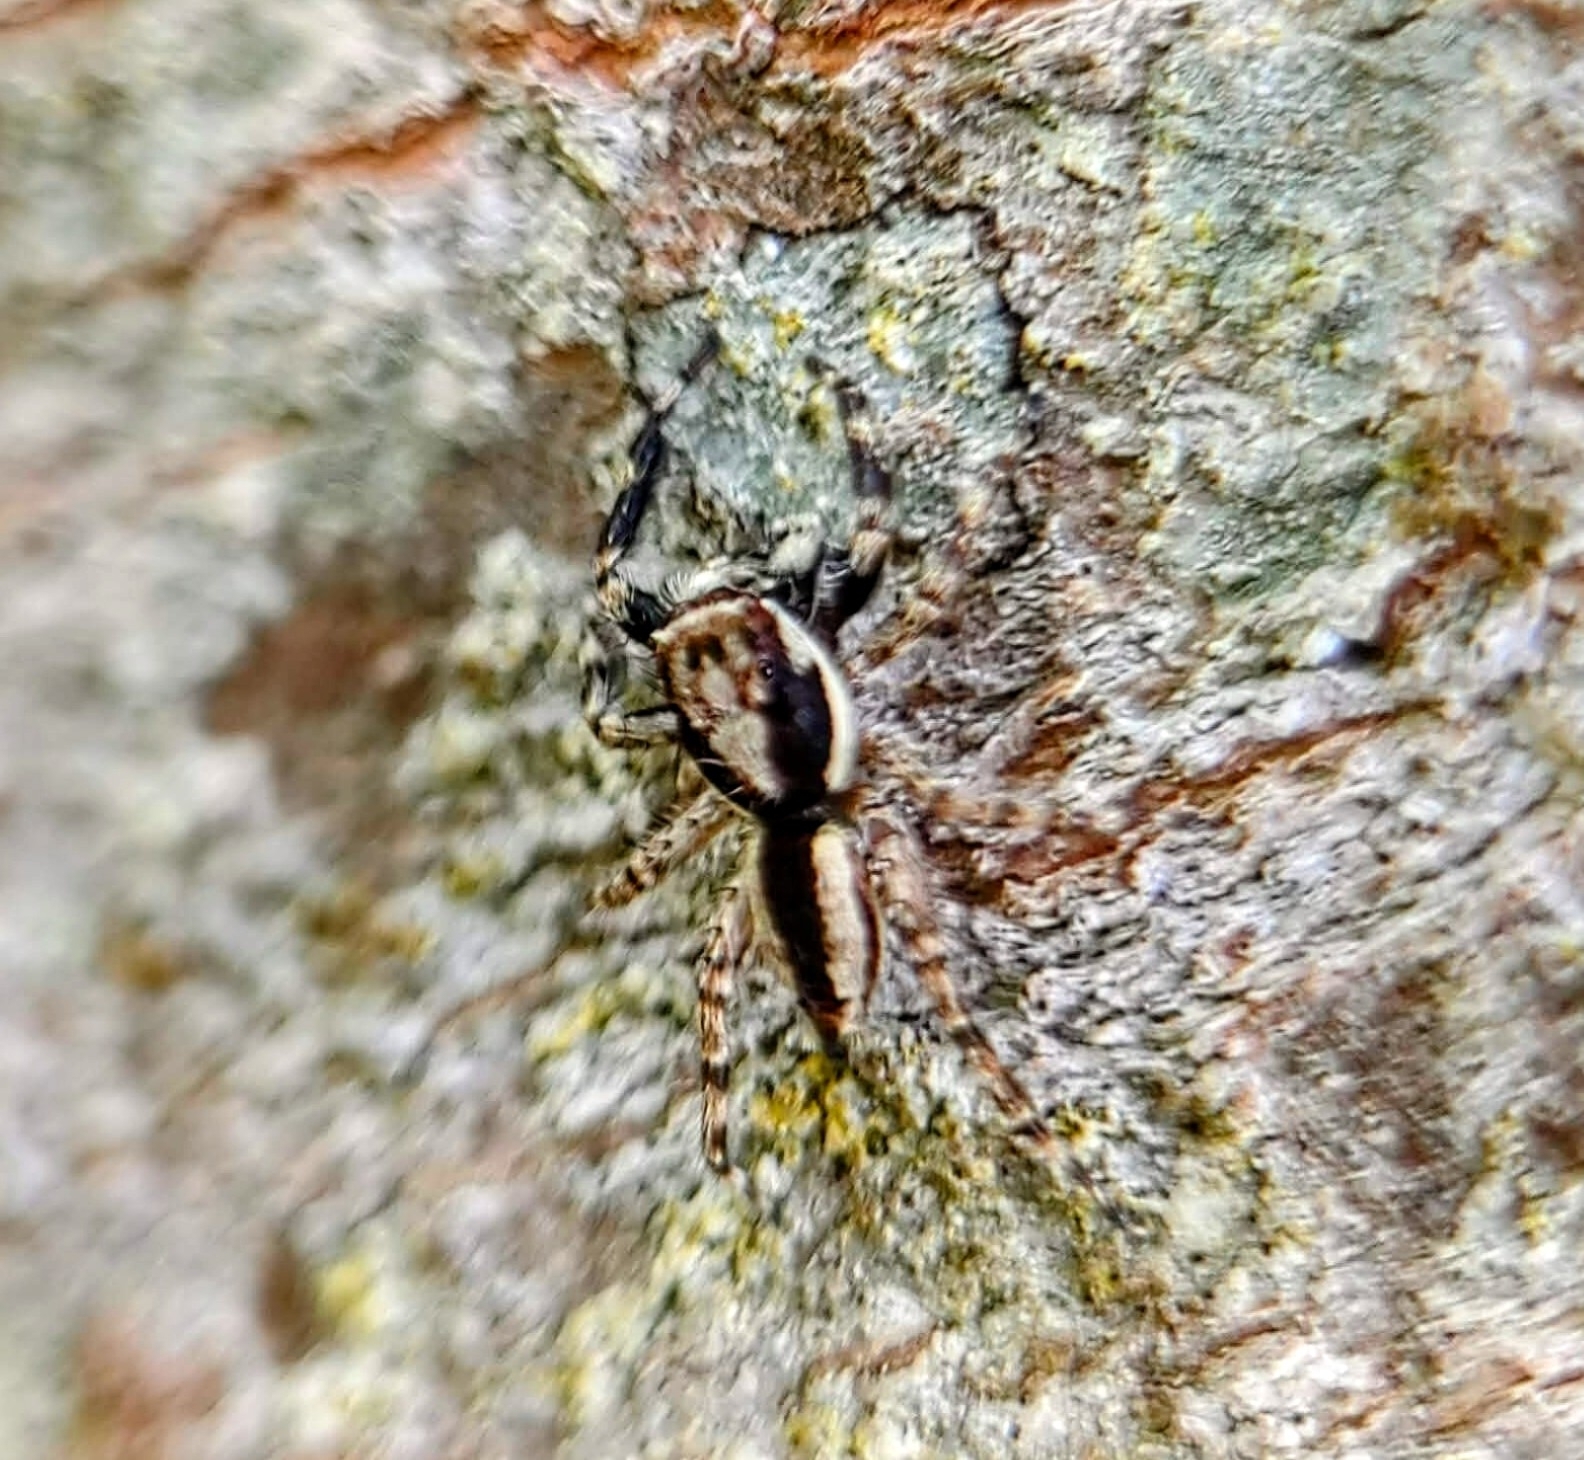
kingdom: Animalia
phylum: Arthropoda
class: Arachnida
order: Araneae
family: Salticidae
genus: Menemerus
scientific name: Menemerus bivittatus
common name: Gray wall jumper
